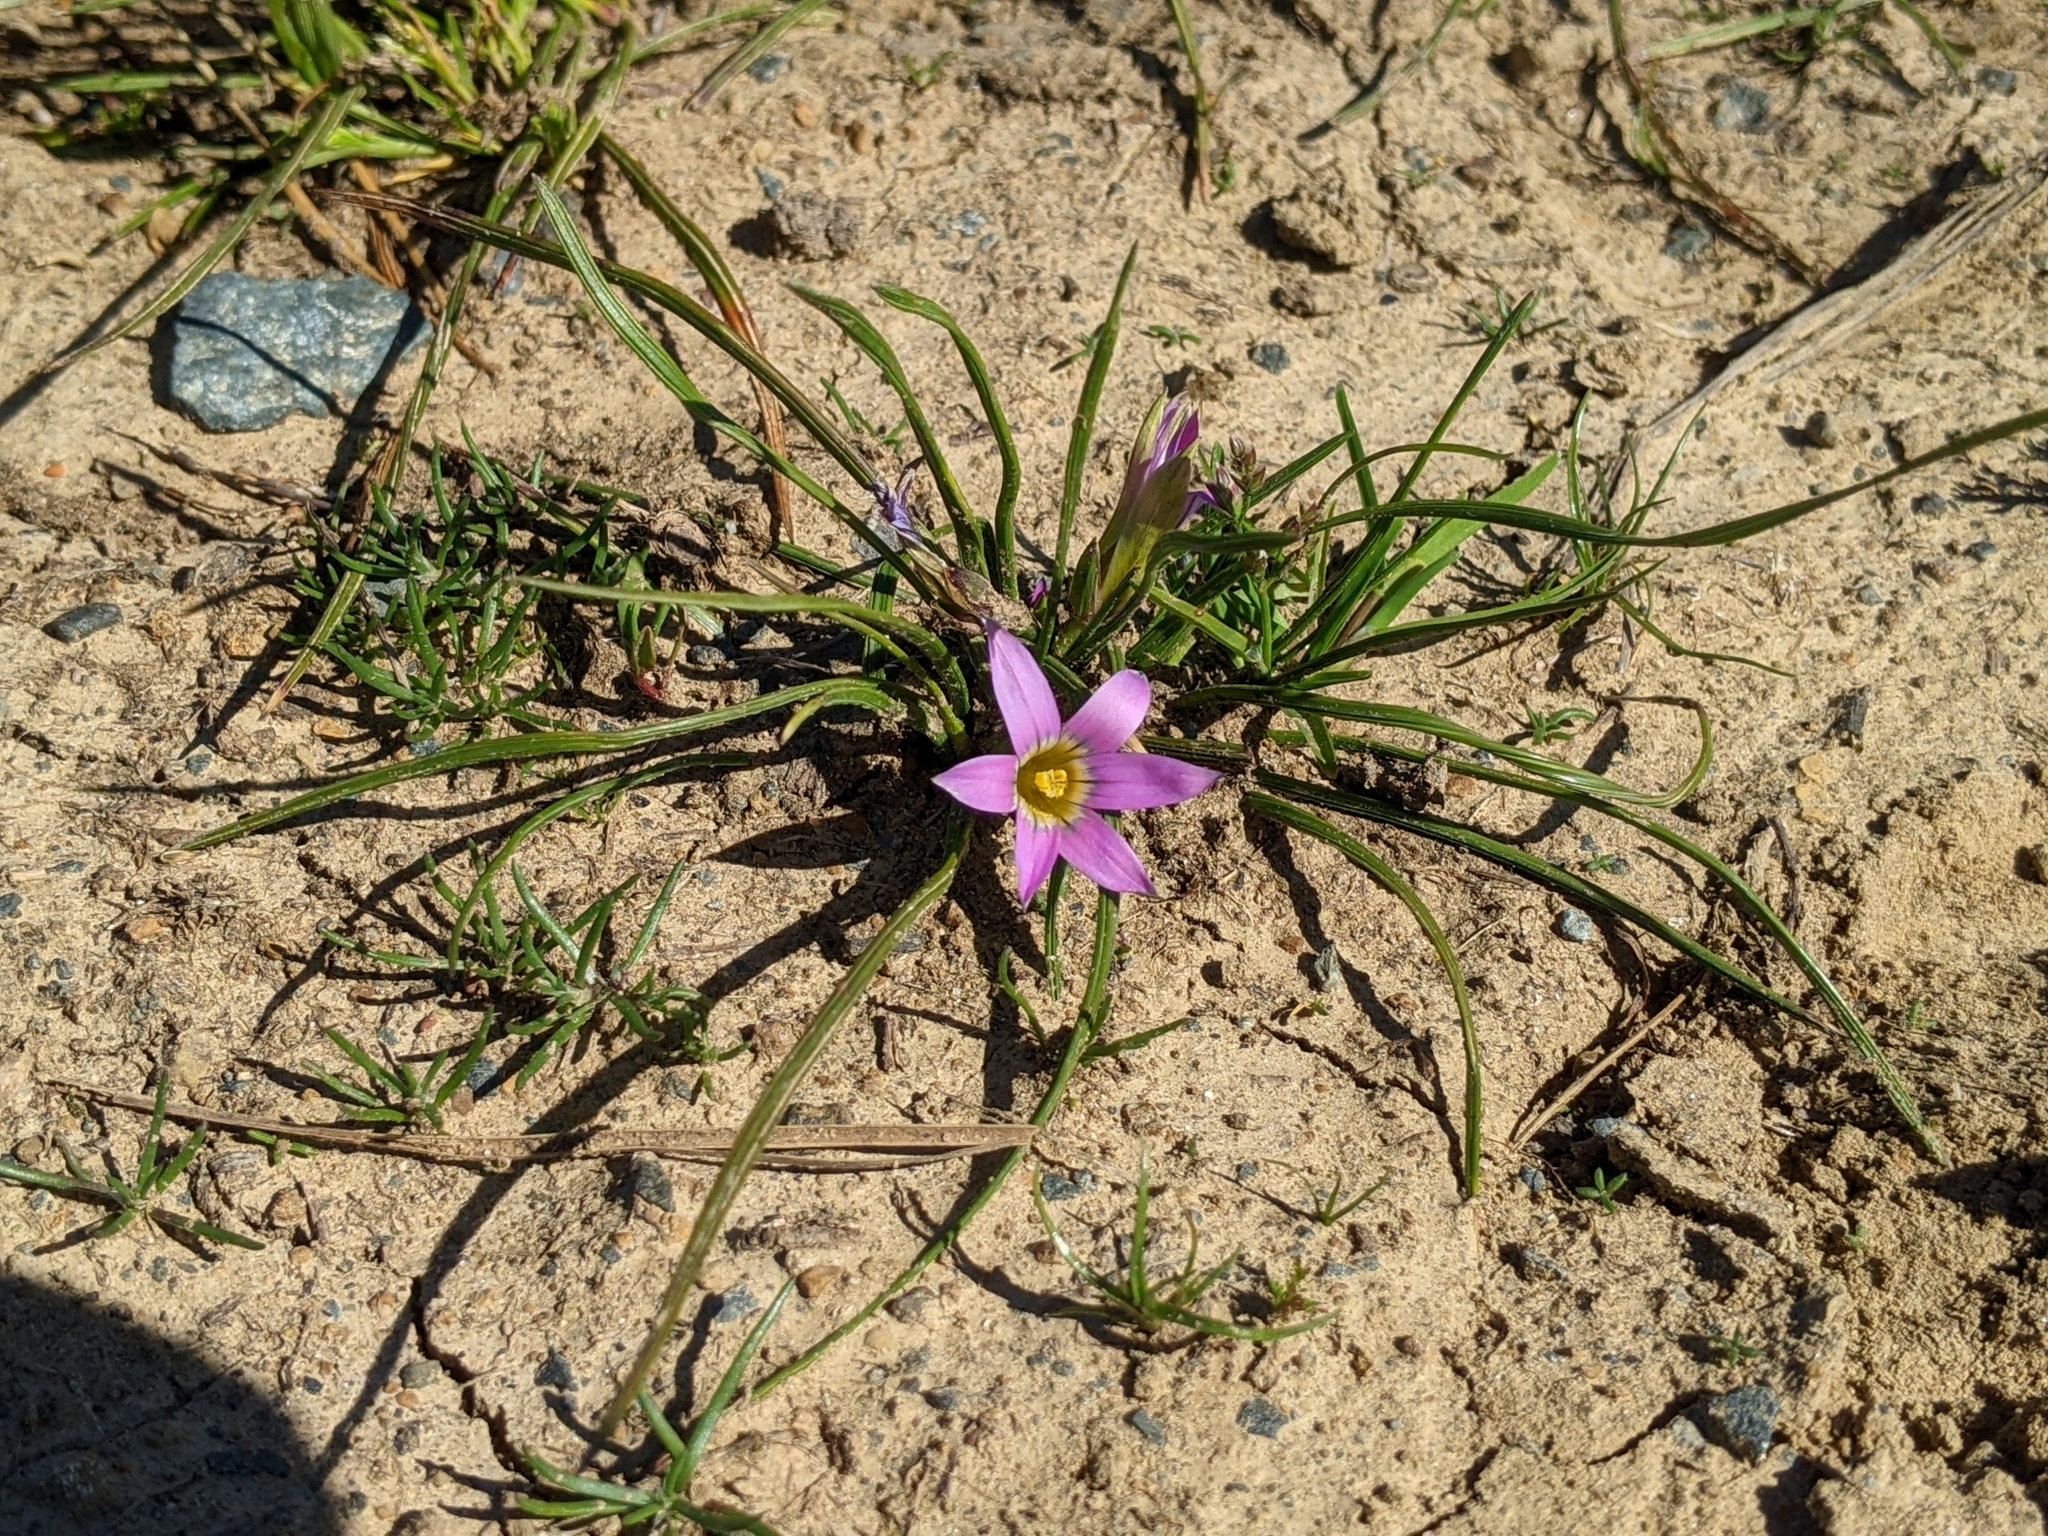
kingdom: Plantae
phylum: Tracheophyta
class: Liliopsida
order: Asparagales
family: Iridaceae
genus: Romulea
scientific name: Romulea rosea
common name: Oniongrass
